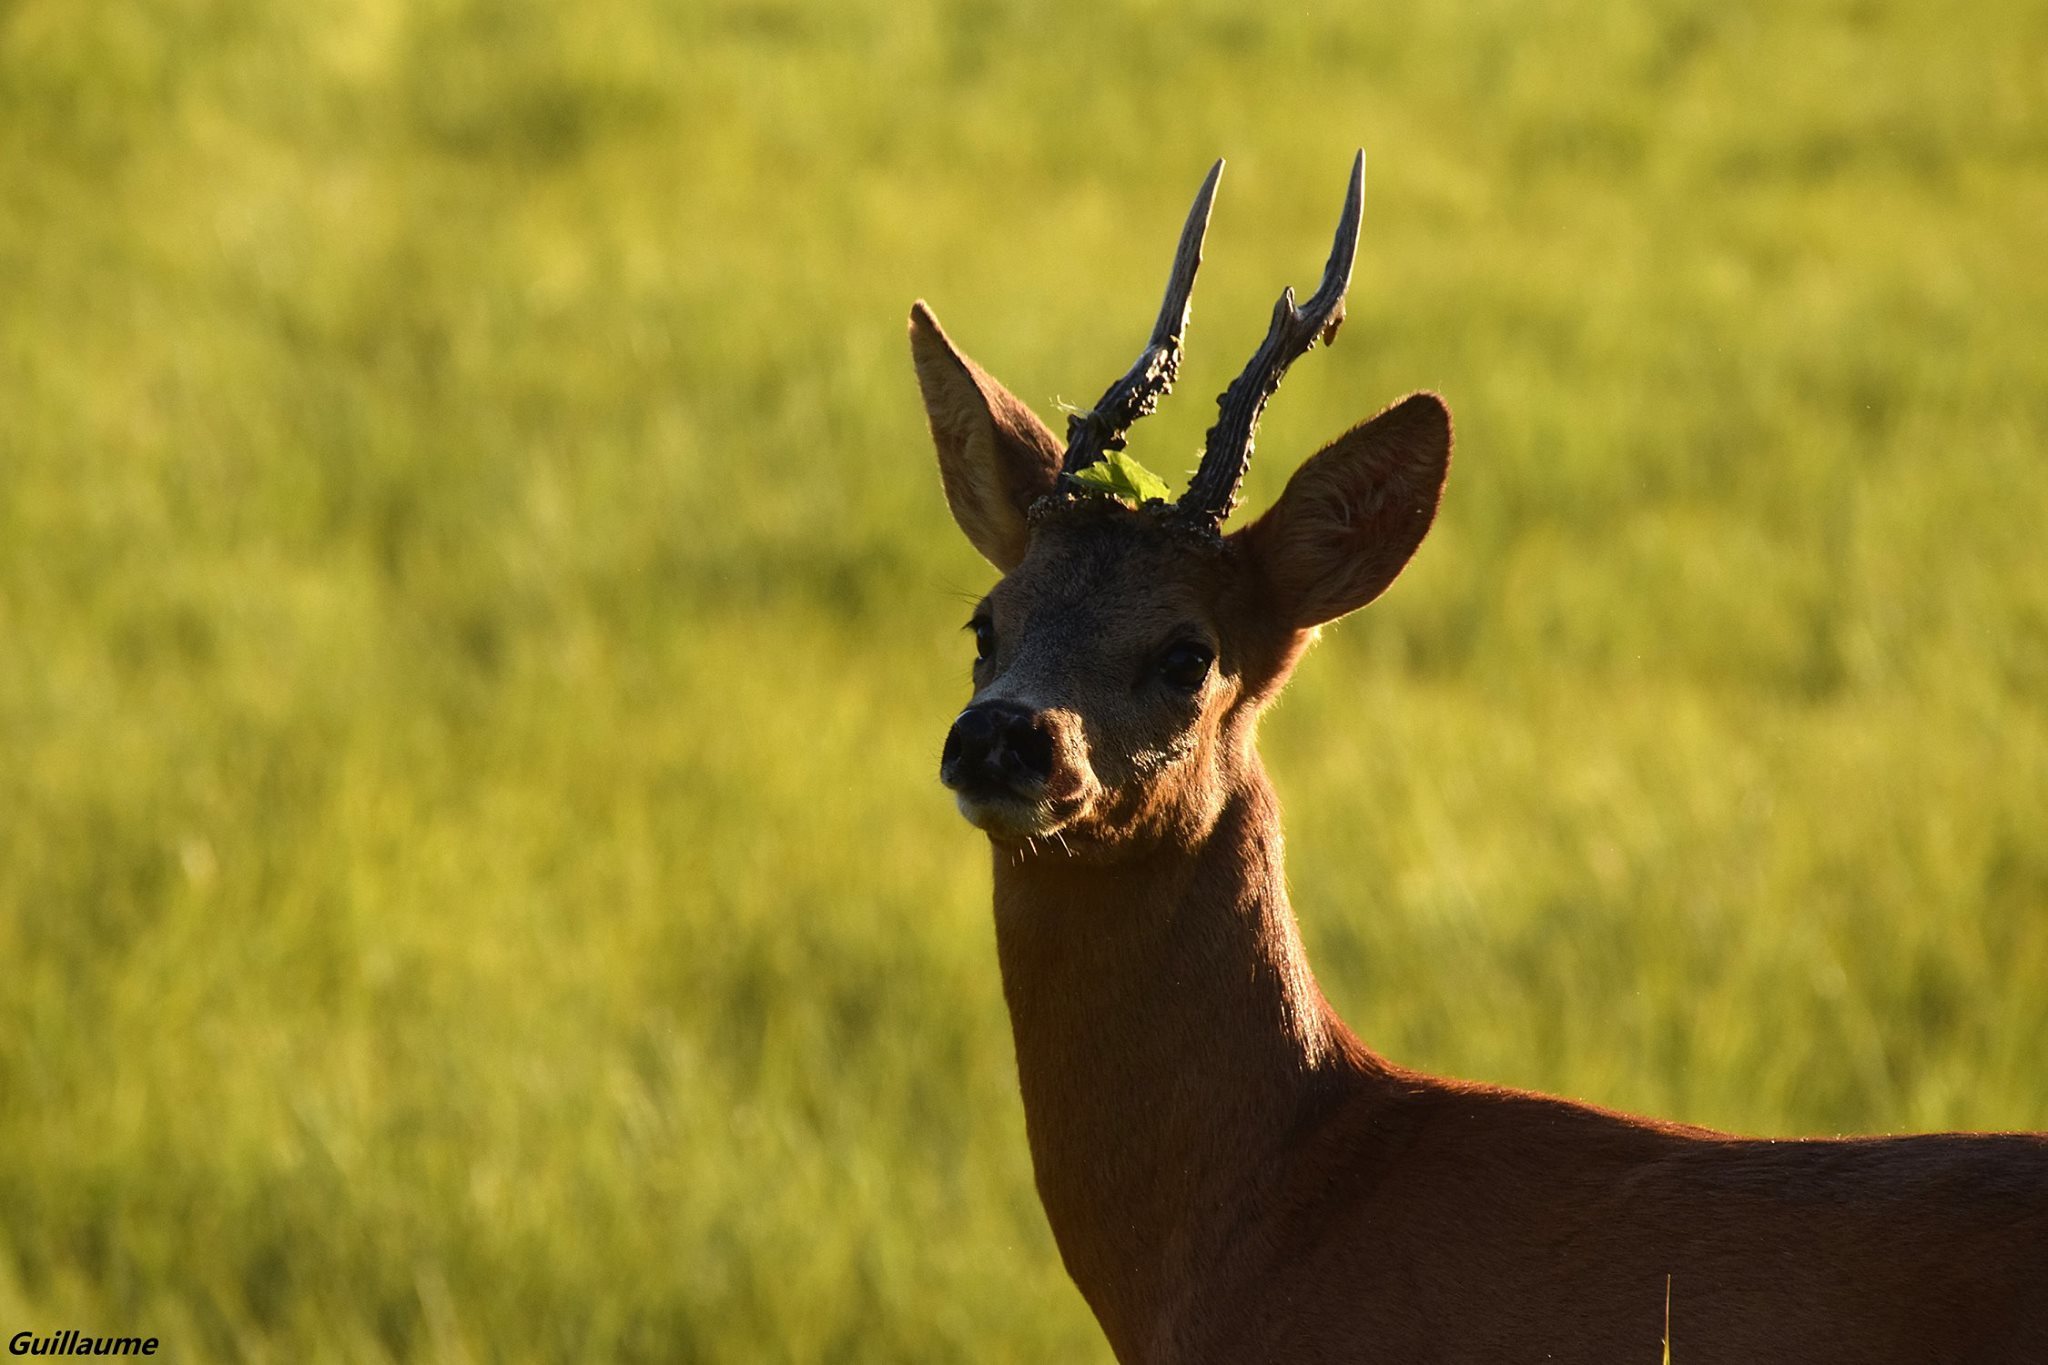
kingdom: Animalia
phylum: Chordata
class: Mammalia
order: Artiodactyla
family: Cervidae
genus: Capreolus
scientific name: Capreolus capreolus
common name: Western roe deer
